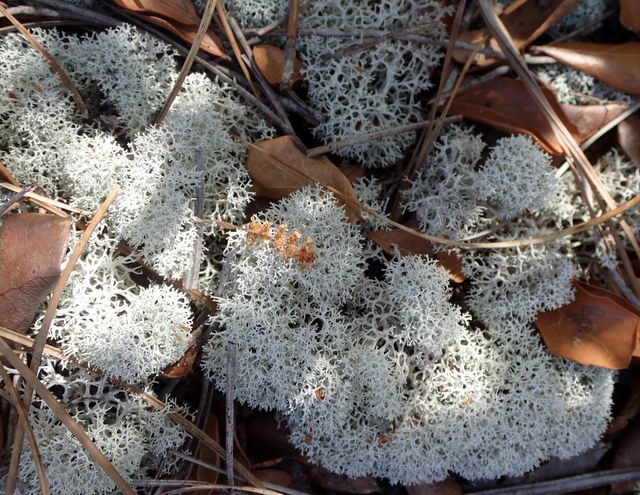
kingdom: Fungi
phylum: Ascomycota
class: Lecanoromycetes
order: Lecanorales
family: Cladoniaceae
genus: Cladonia
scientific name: Cladonia evansii
